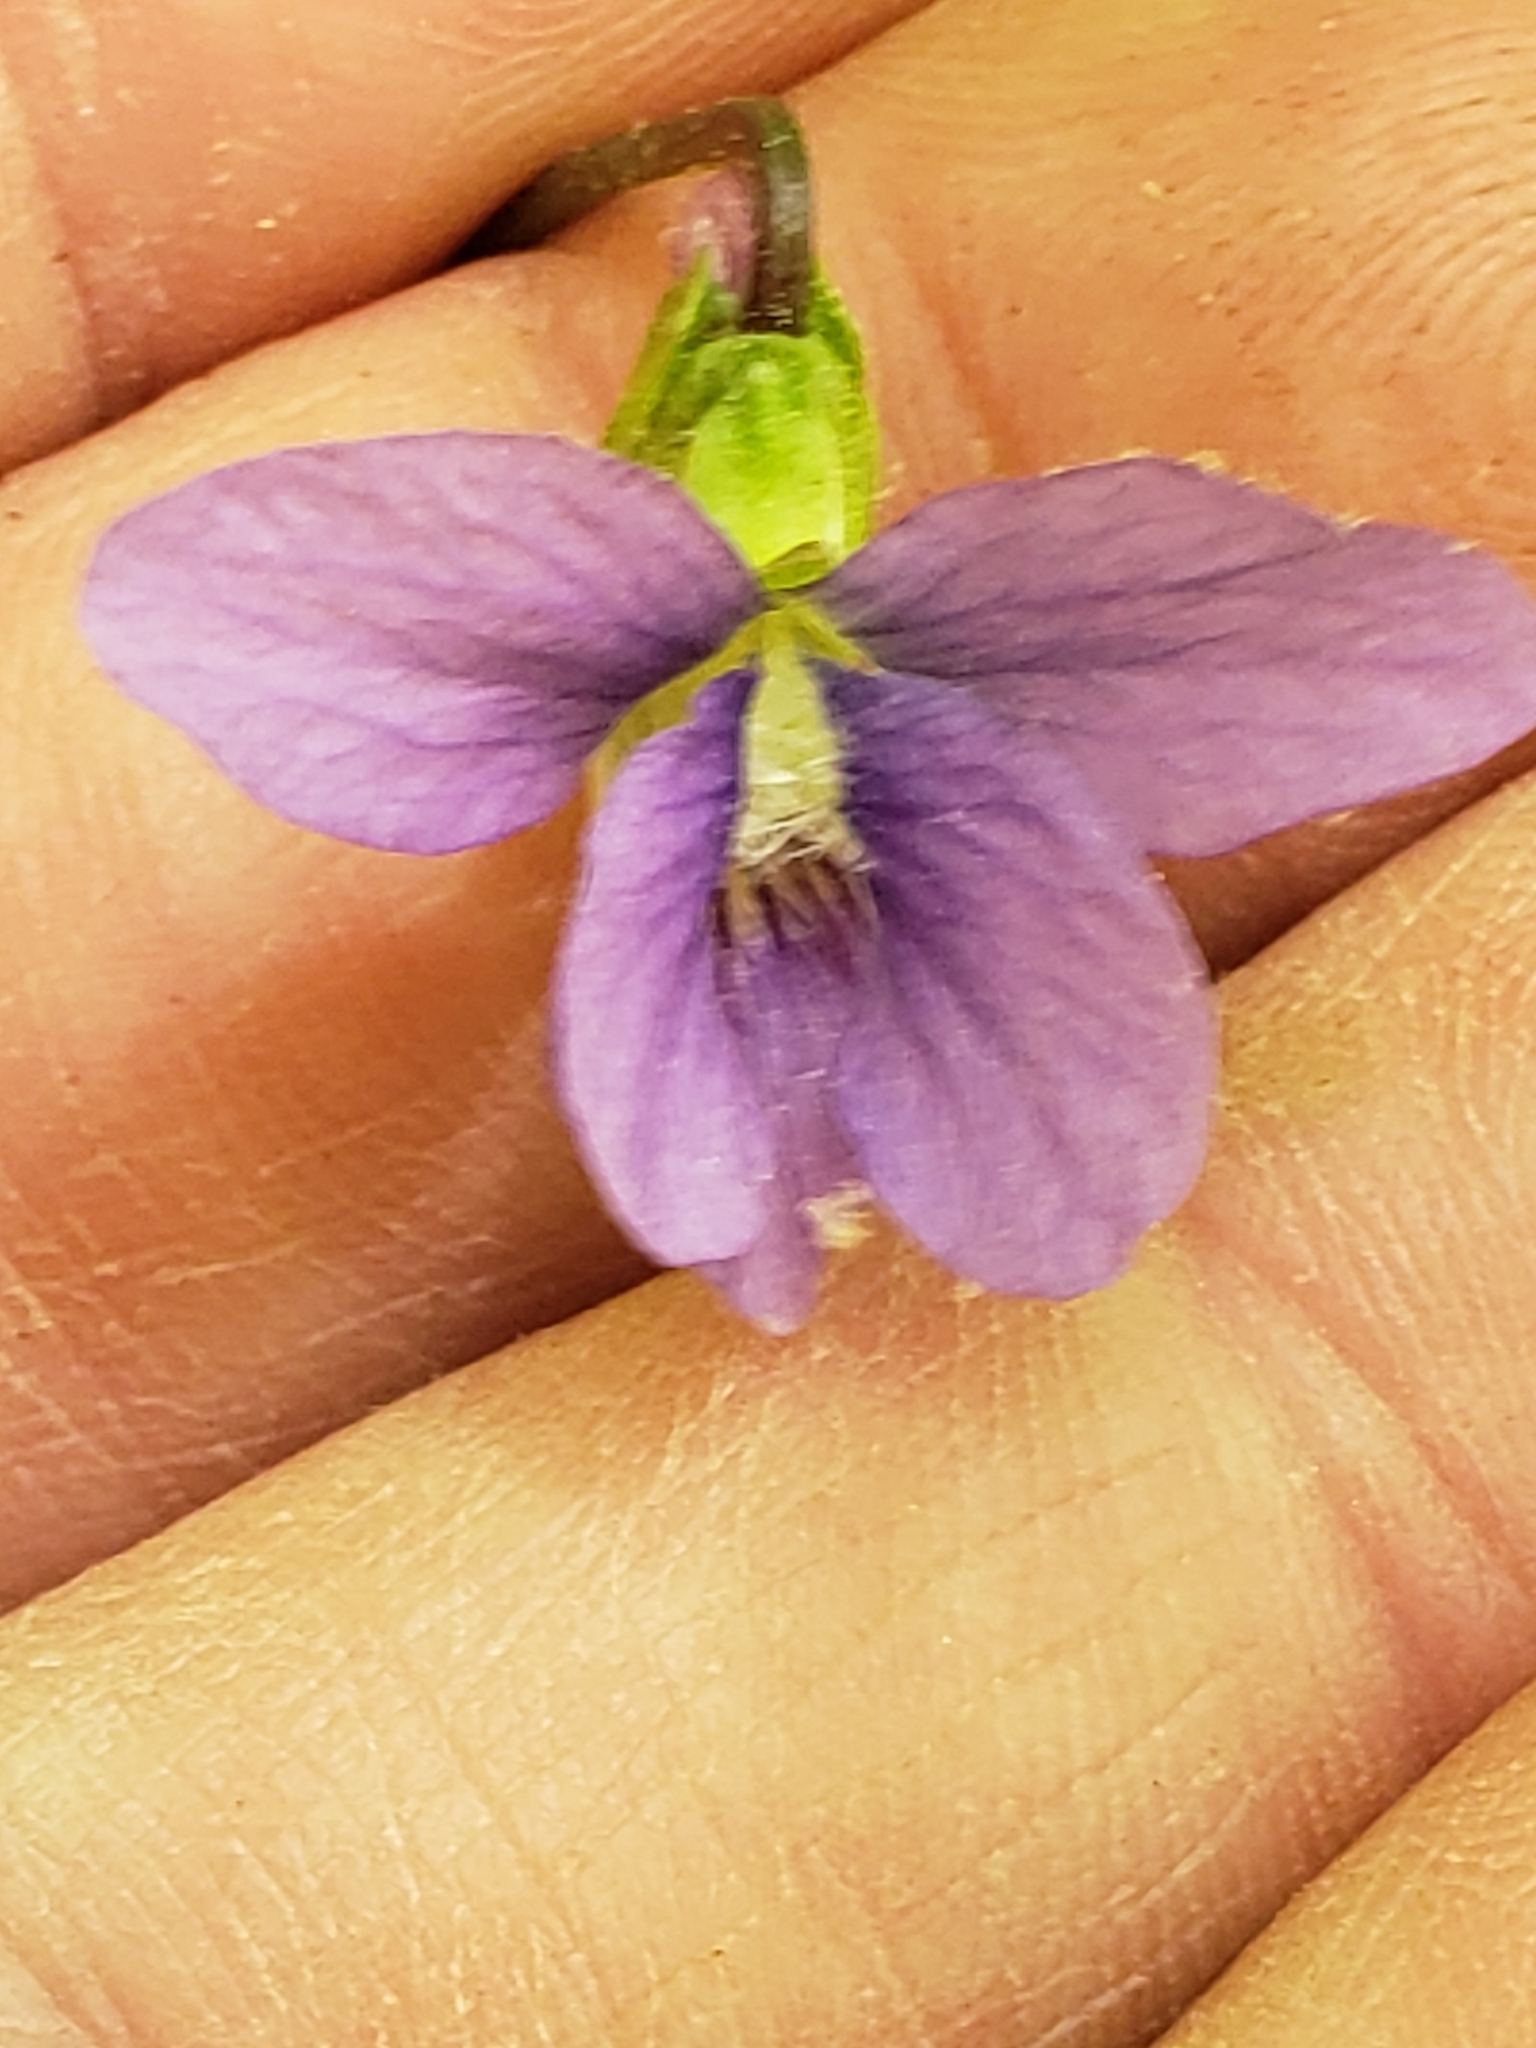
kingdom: Plantae
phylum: Tracheophyta
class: Magnoliopsida
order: Malpighiales
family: Violaceae
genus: Viola
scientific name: Viola palmata
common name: Early blue violet
